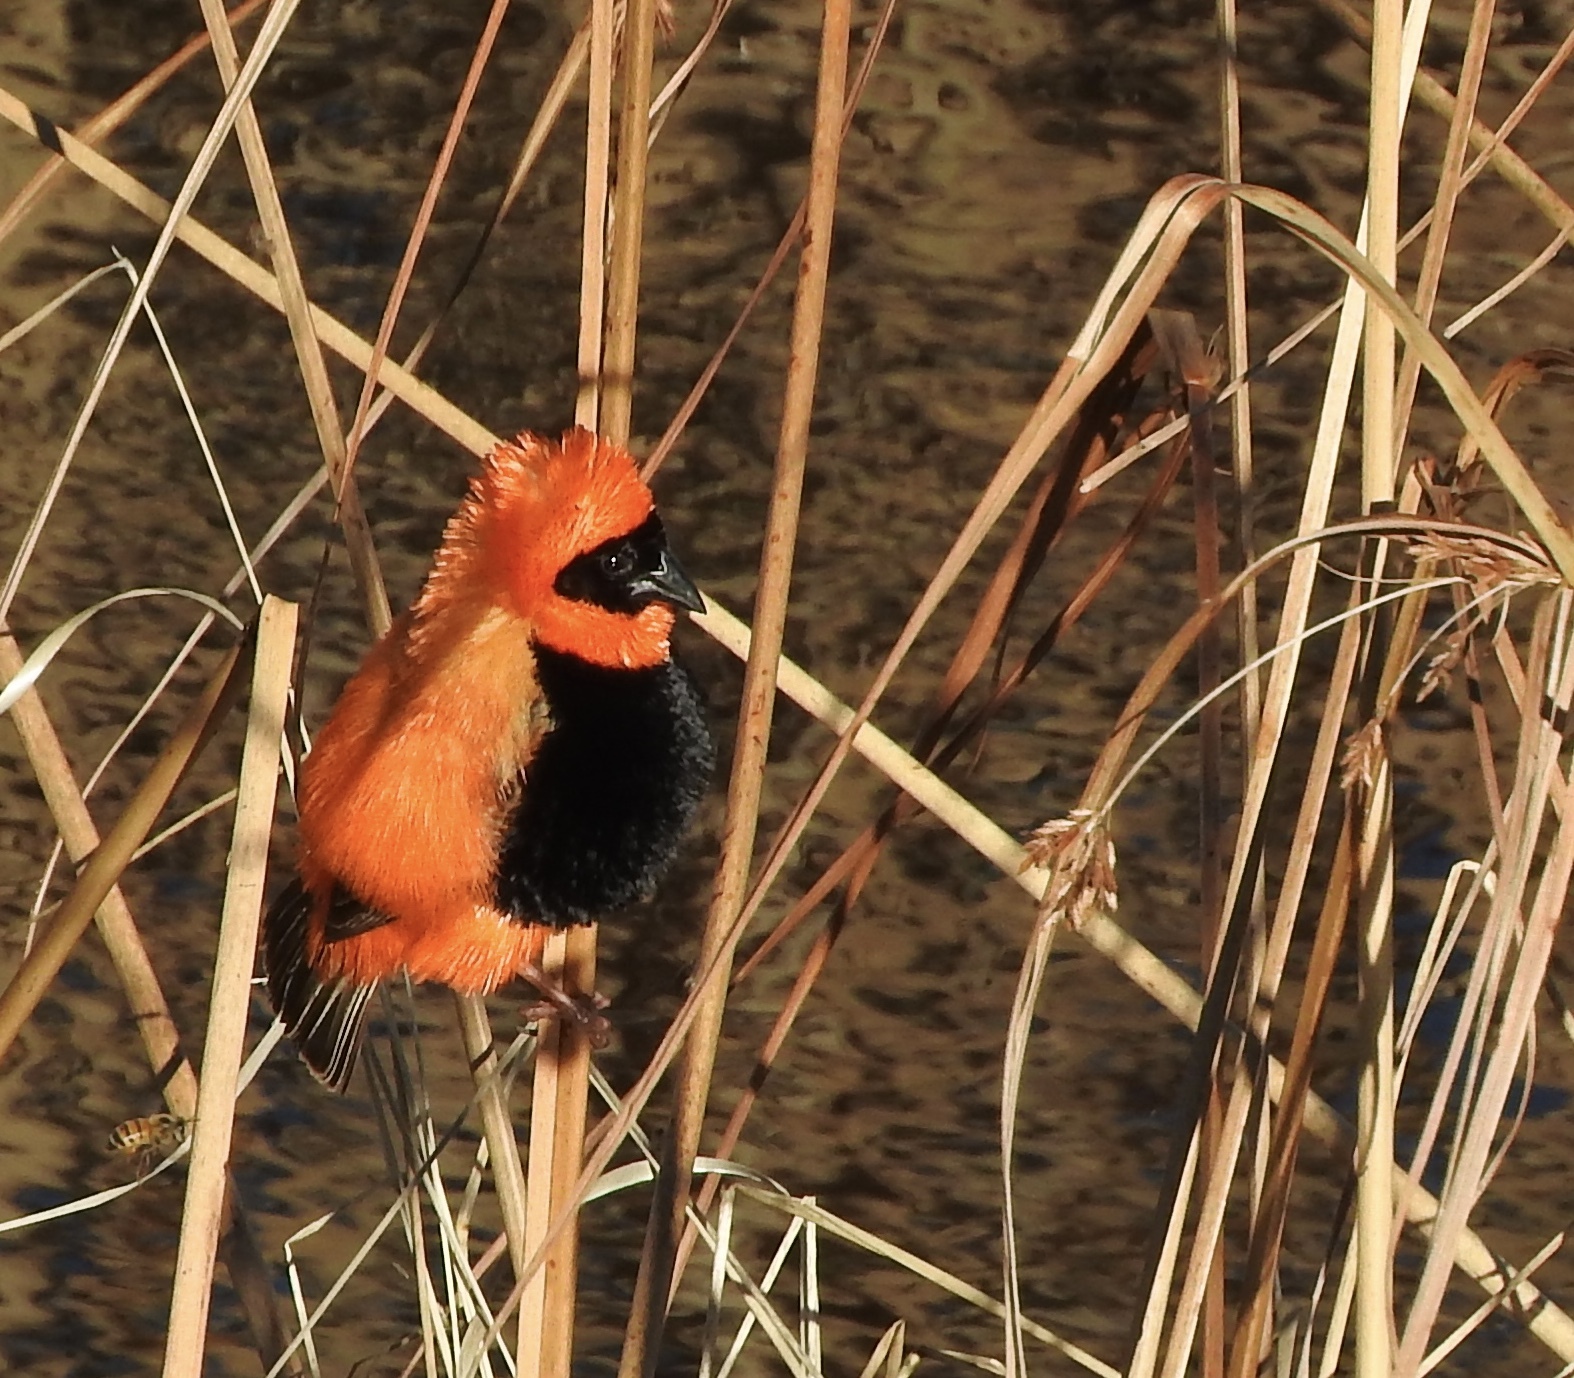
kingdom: Animalia
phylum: Chordata
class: Aves
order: Passeriformes
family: Ploceidae
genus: Euplectes
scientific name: Euplectes orix
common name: Southern red bishop
